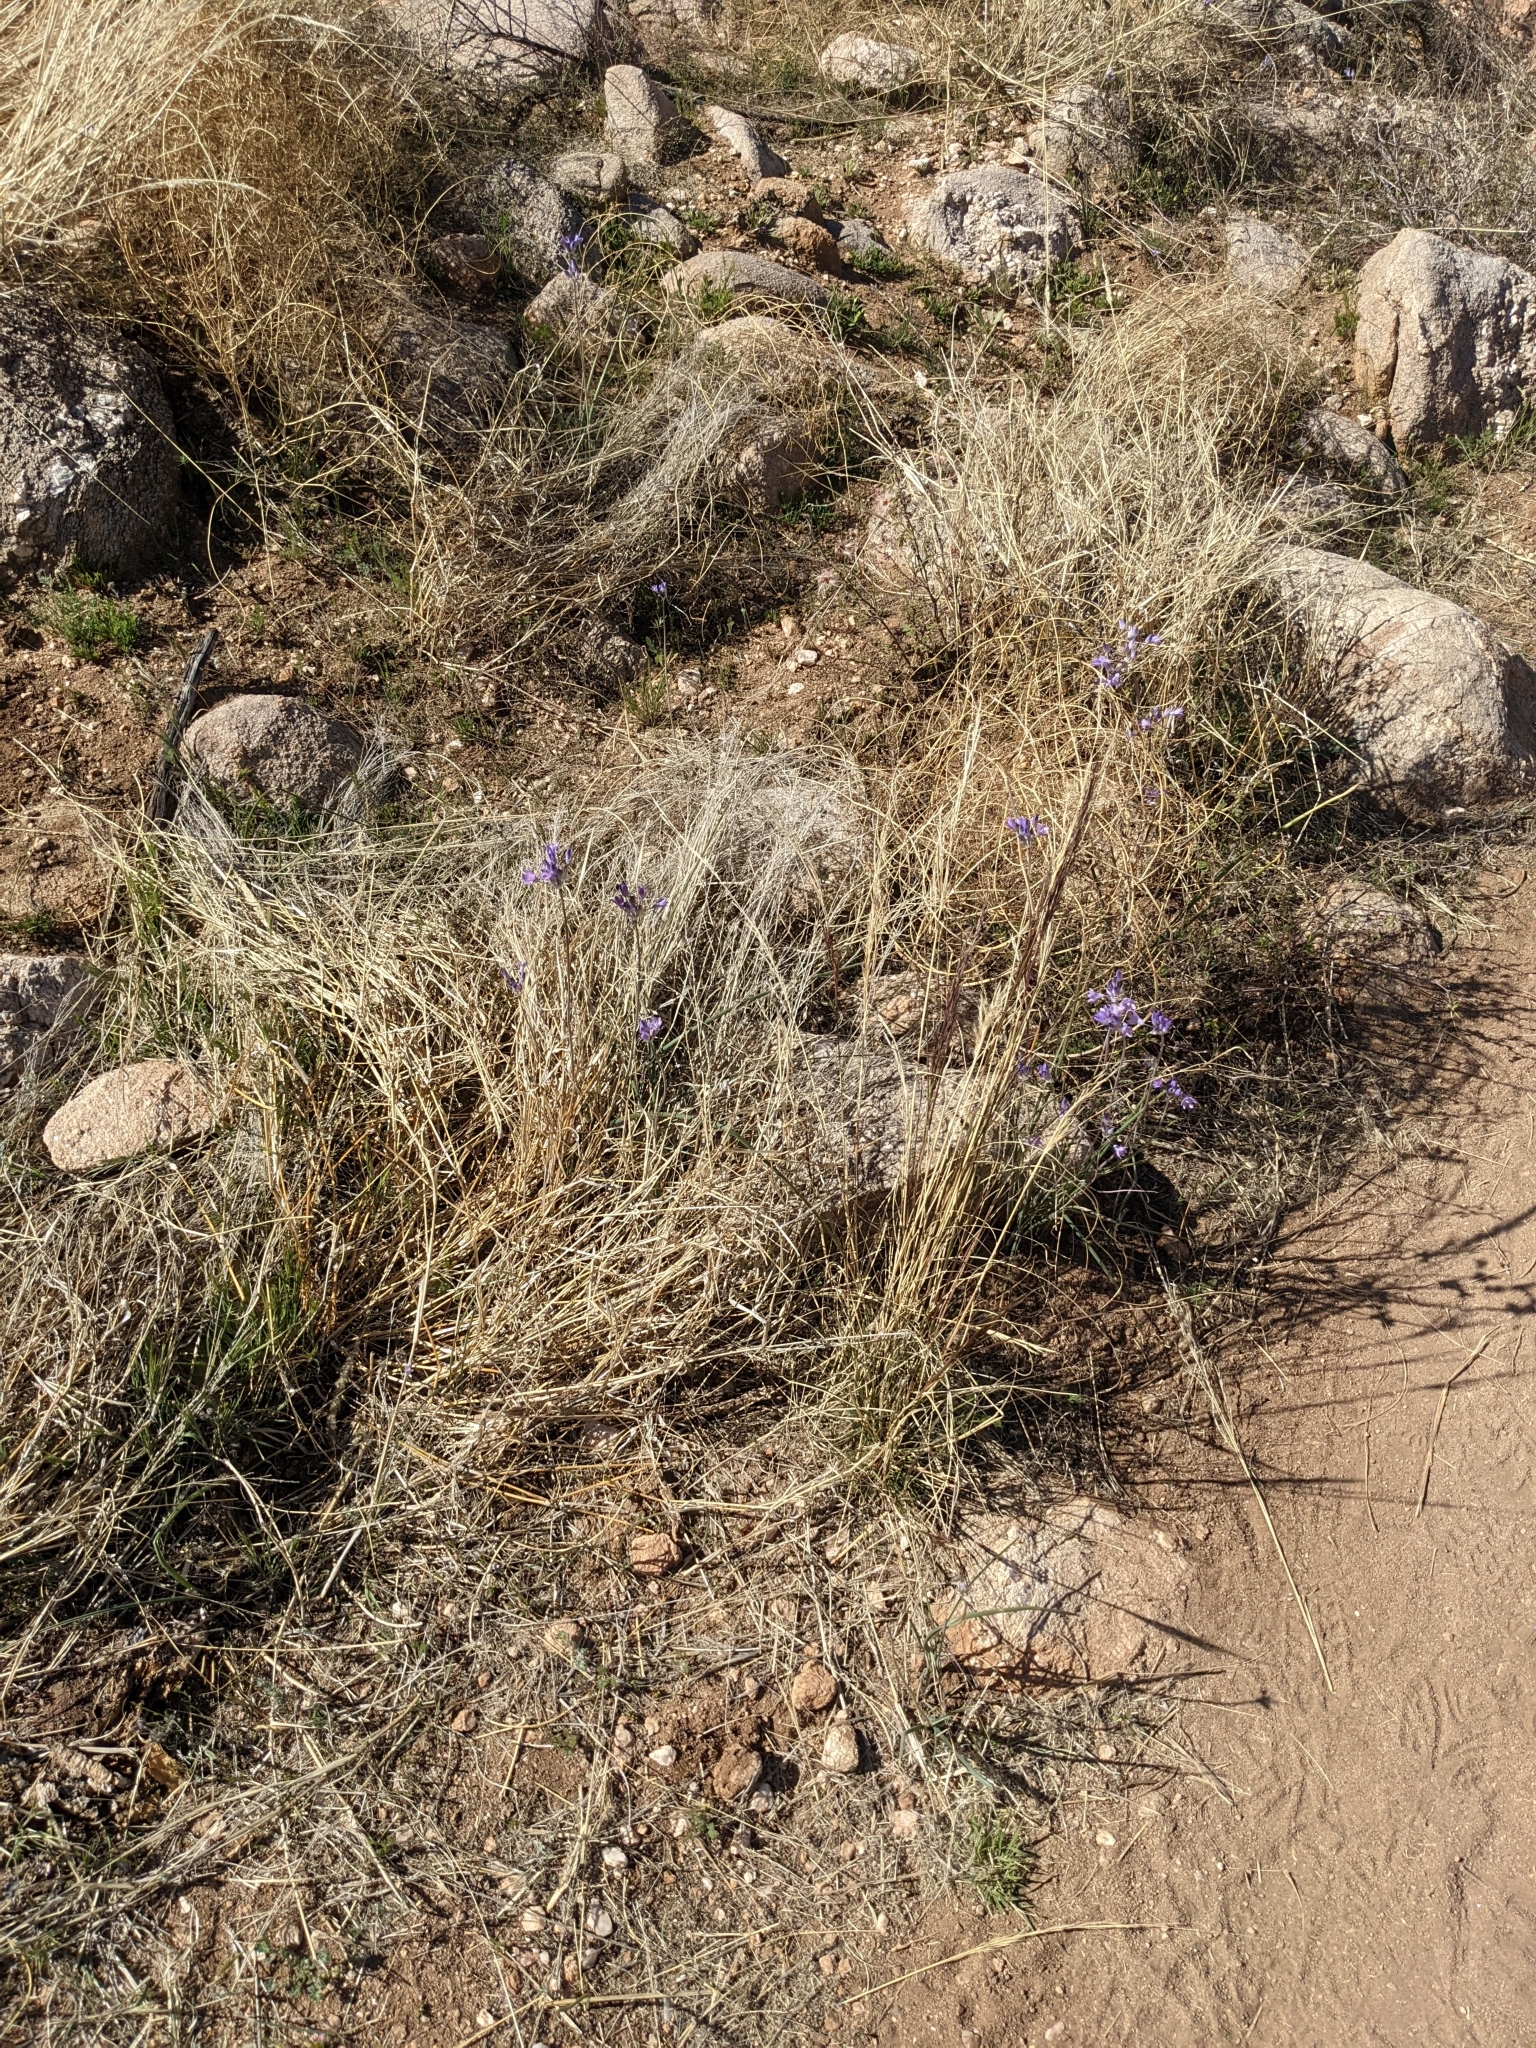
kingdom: Plantae
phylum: Tracheophyta
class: Liliopsida
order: Asparagales
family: Asparagaceae
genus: Dipterostemon
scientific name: Dipterostemon capitatus
